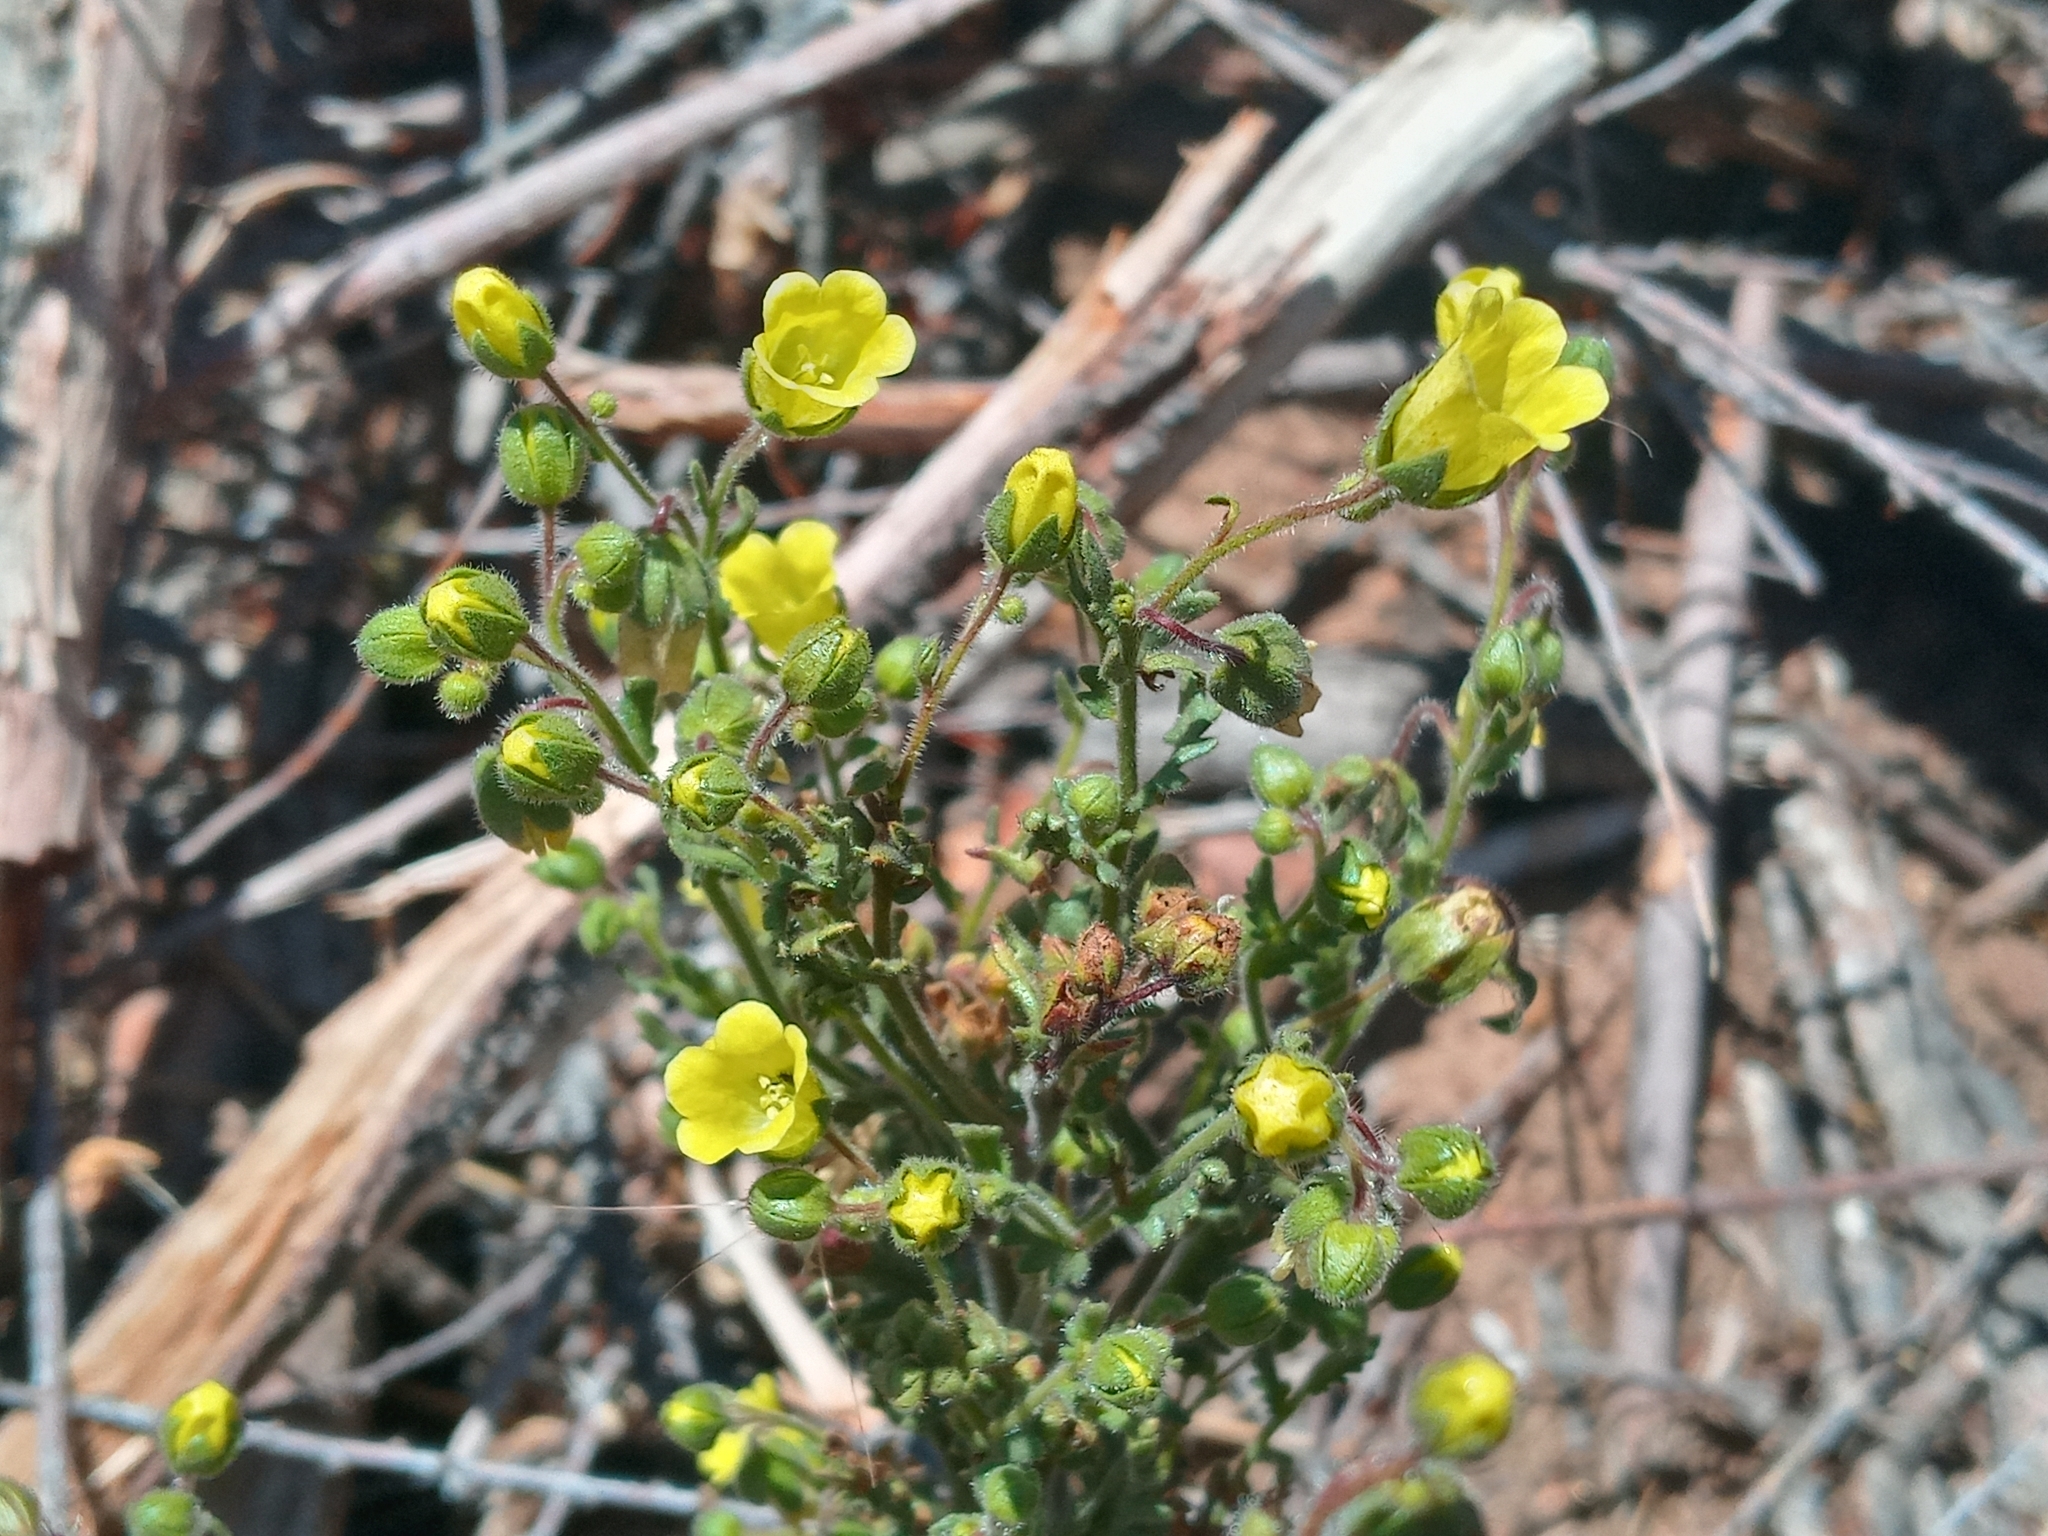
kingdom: Plantae
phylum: Tracheophyta
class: Magnoliopsida
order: Boraginales
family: Hydrophyllaceae
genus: Emmenanthe
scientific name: Emmenanthe penduliflora
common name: Whispering-bells
